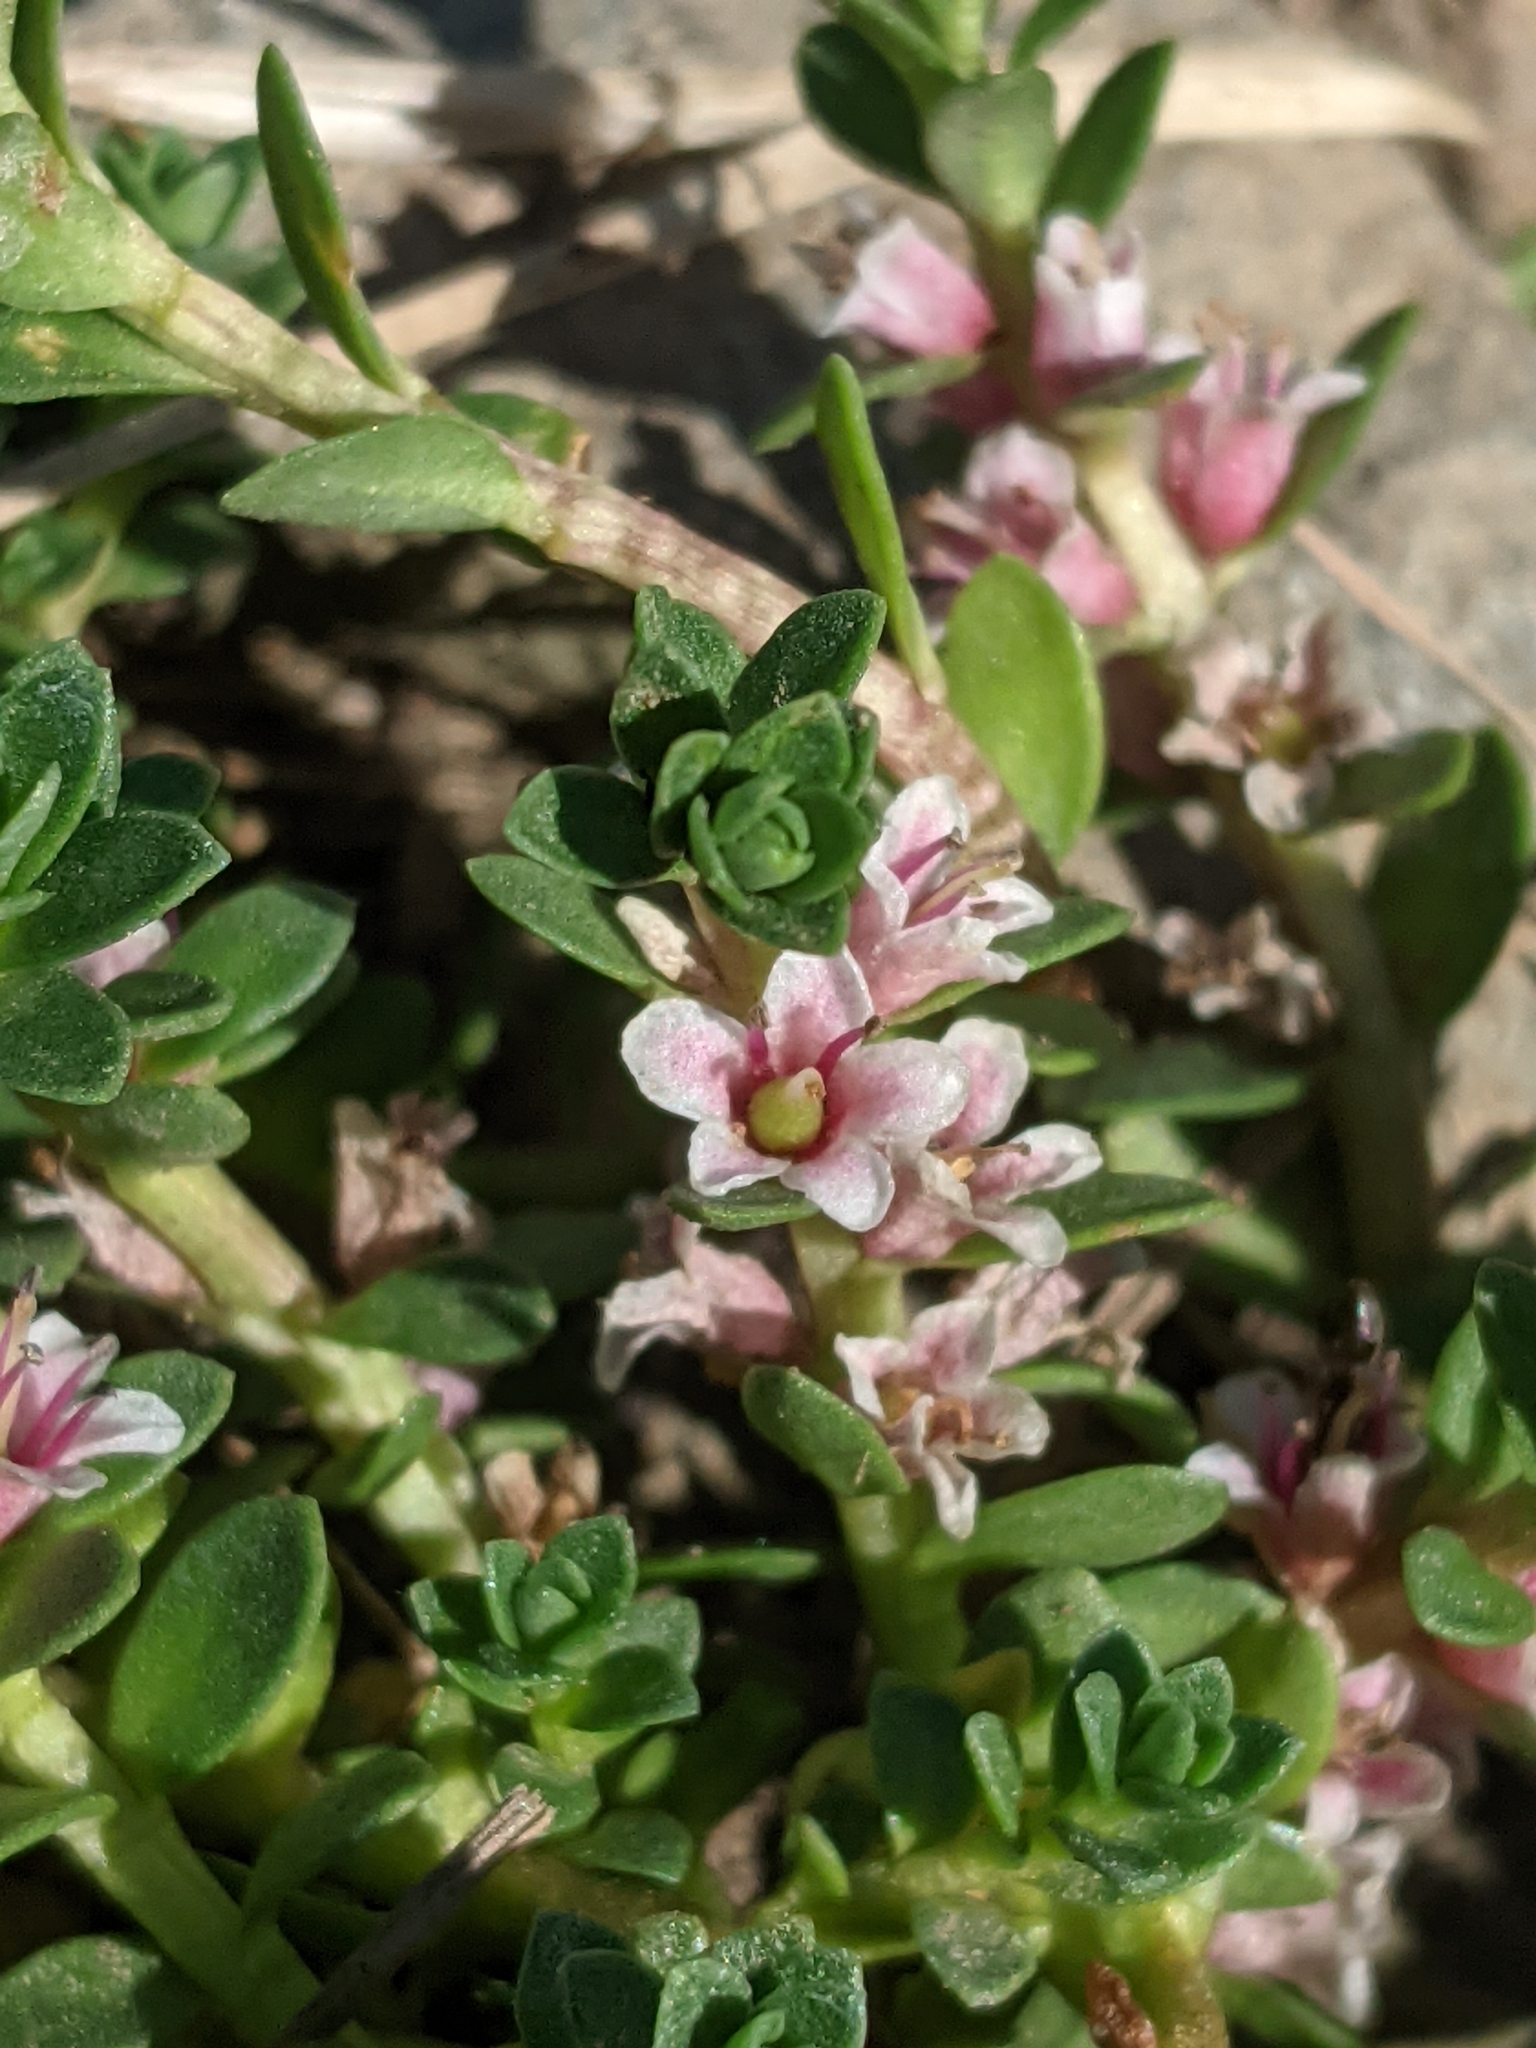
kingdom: Plantae
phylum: Tracheophyta
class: Magnoliopsida
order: Ericales
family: Primulaceae
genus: Lysimachia
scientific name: Lysimachia maritima
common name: Sea milkwort
